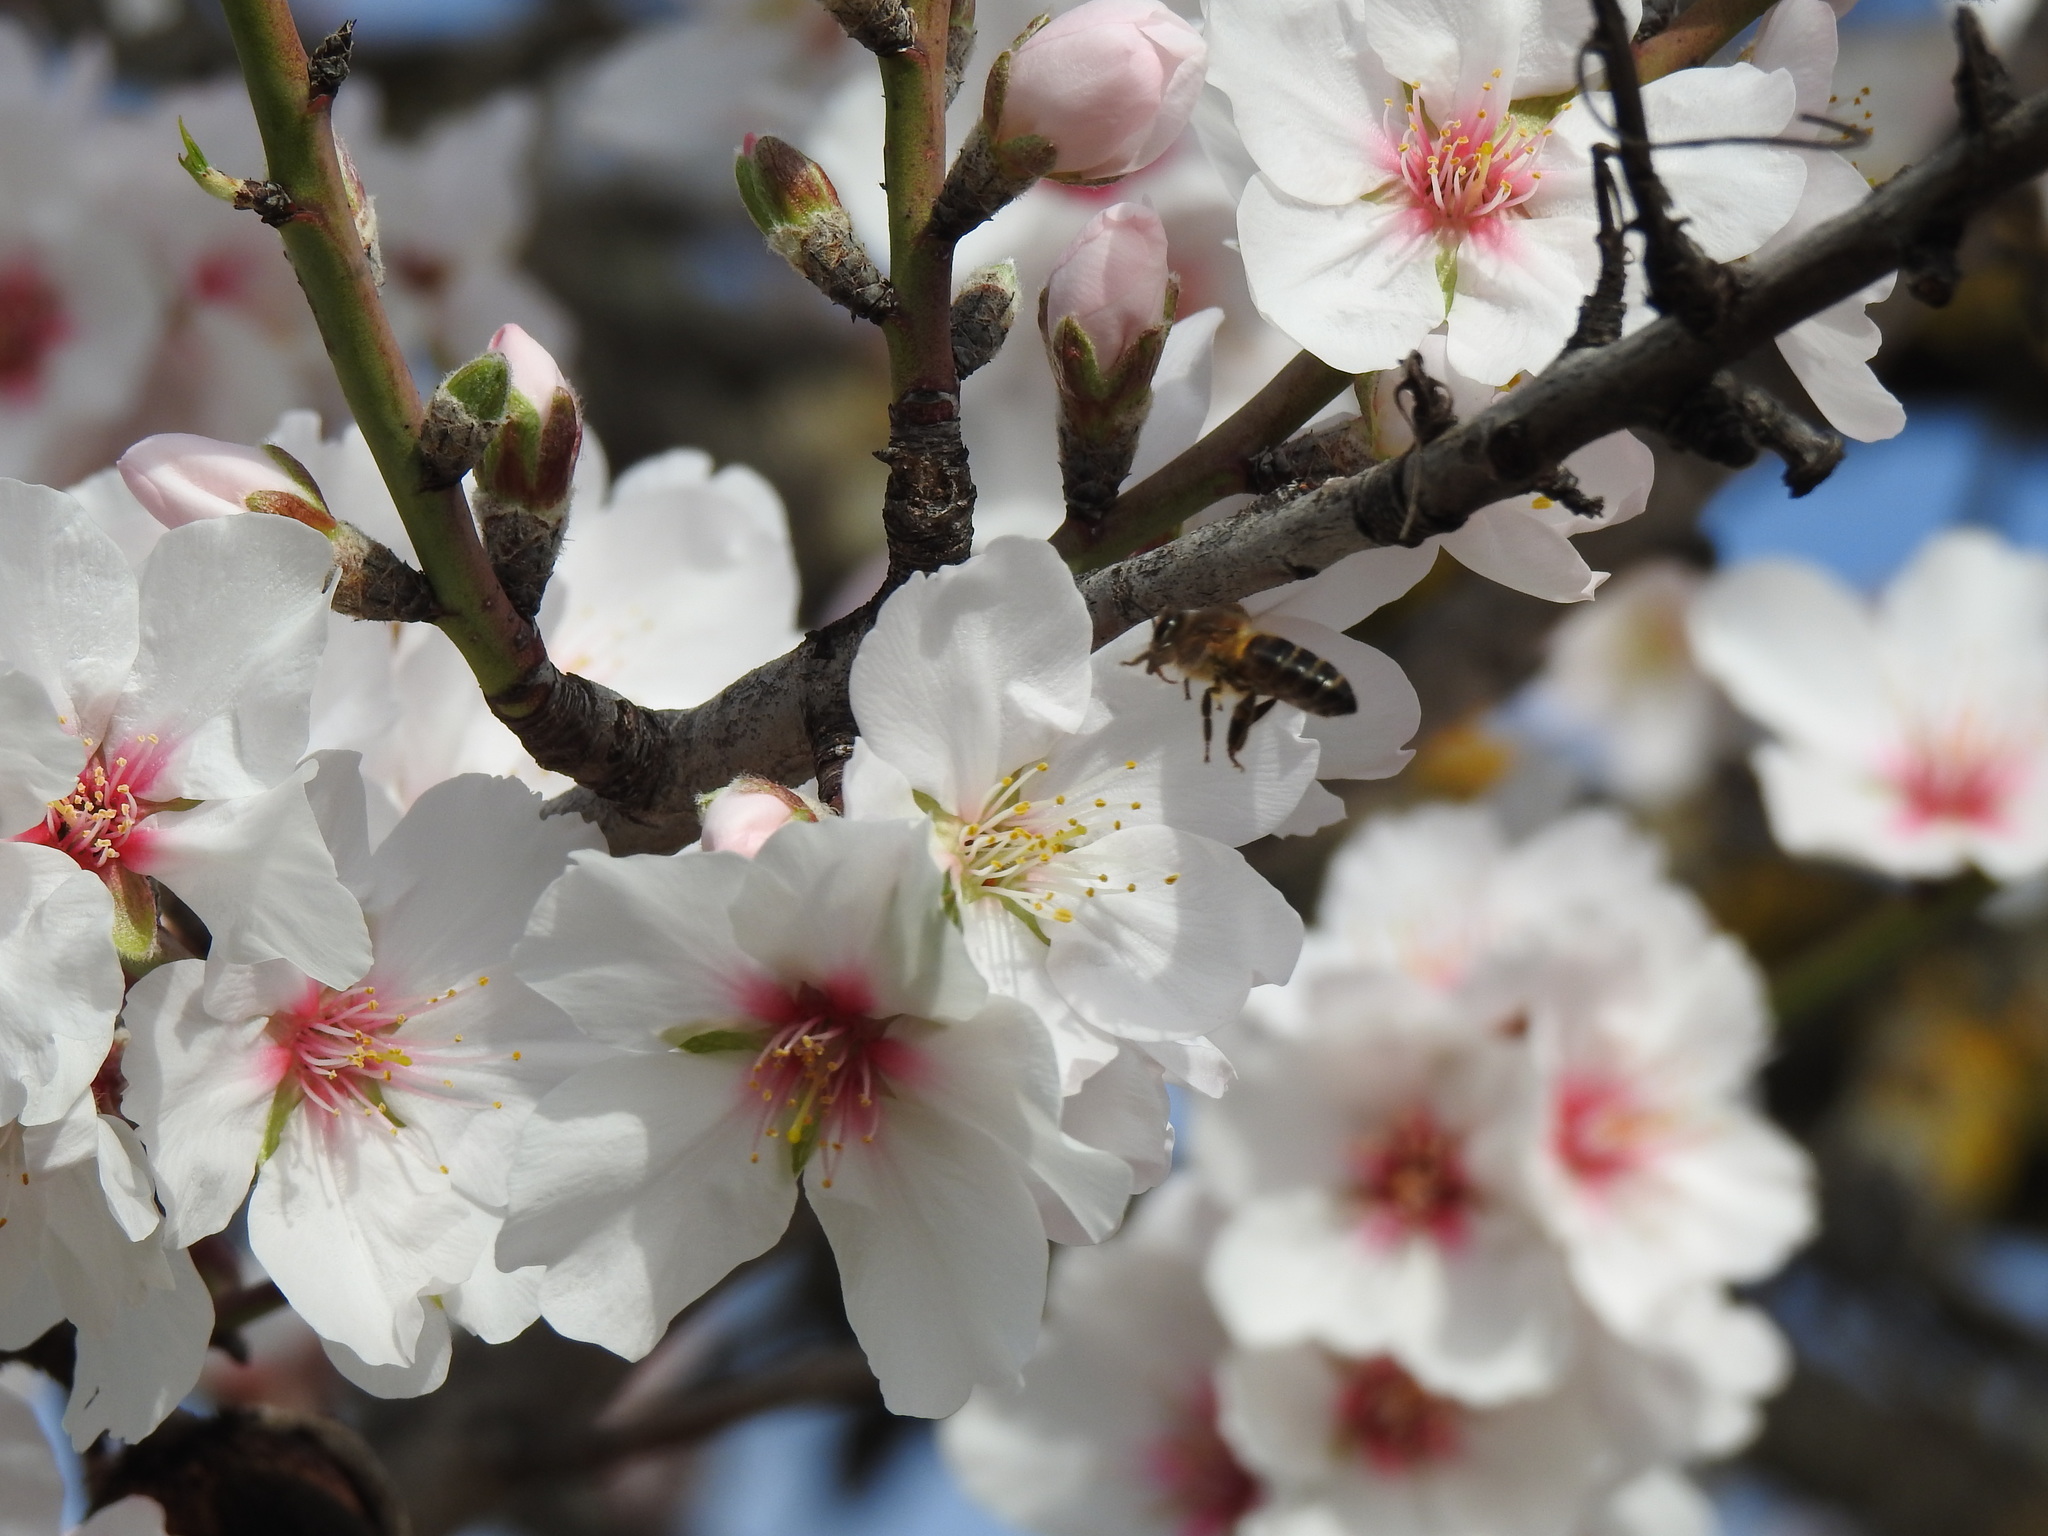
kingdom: Animalia
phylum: Arthropoda
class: Insecta
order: Hymenoptera
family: Apidae
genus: Apis
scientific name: Apis mellifera
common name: Honey bee
